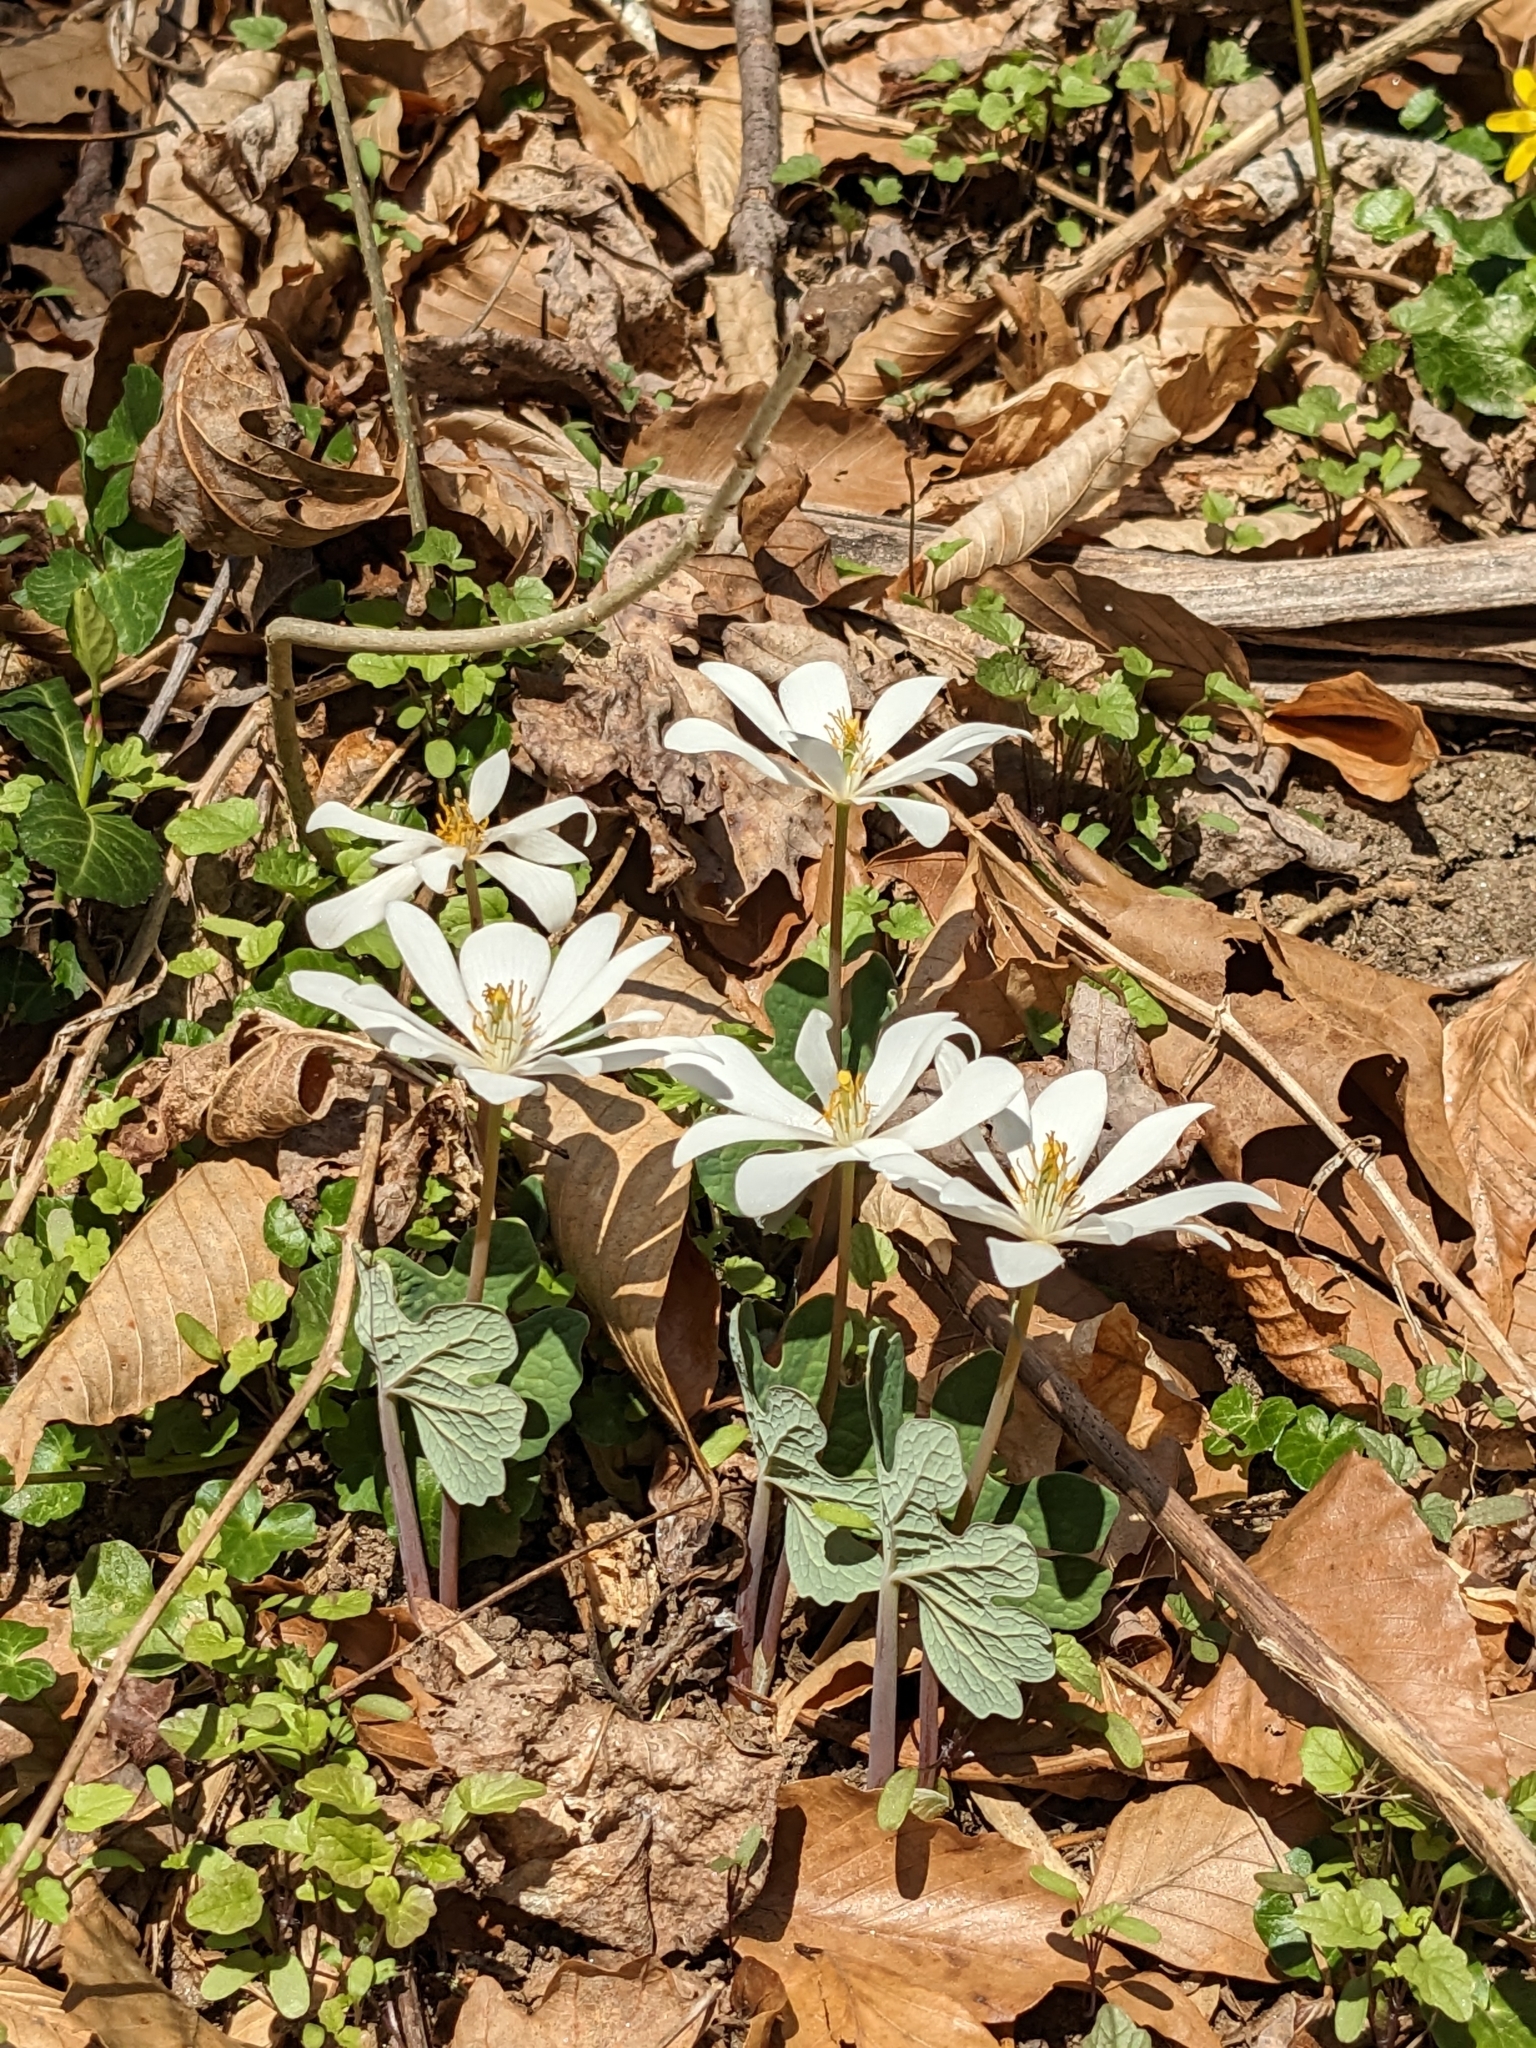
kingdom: Plantae
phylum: Tracheophyta
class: Magnoliopsida
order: Ranunculales
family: Papaveraceae
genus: Sanguinaria
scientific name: Sanguinaria canadensis
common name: Bloodroot
